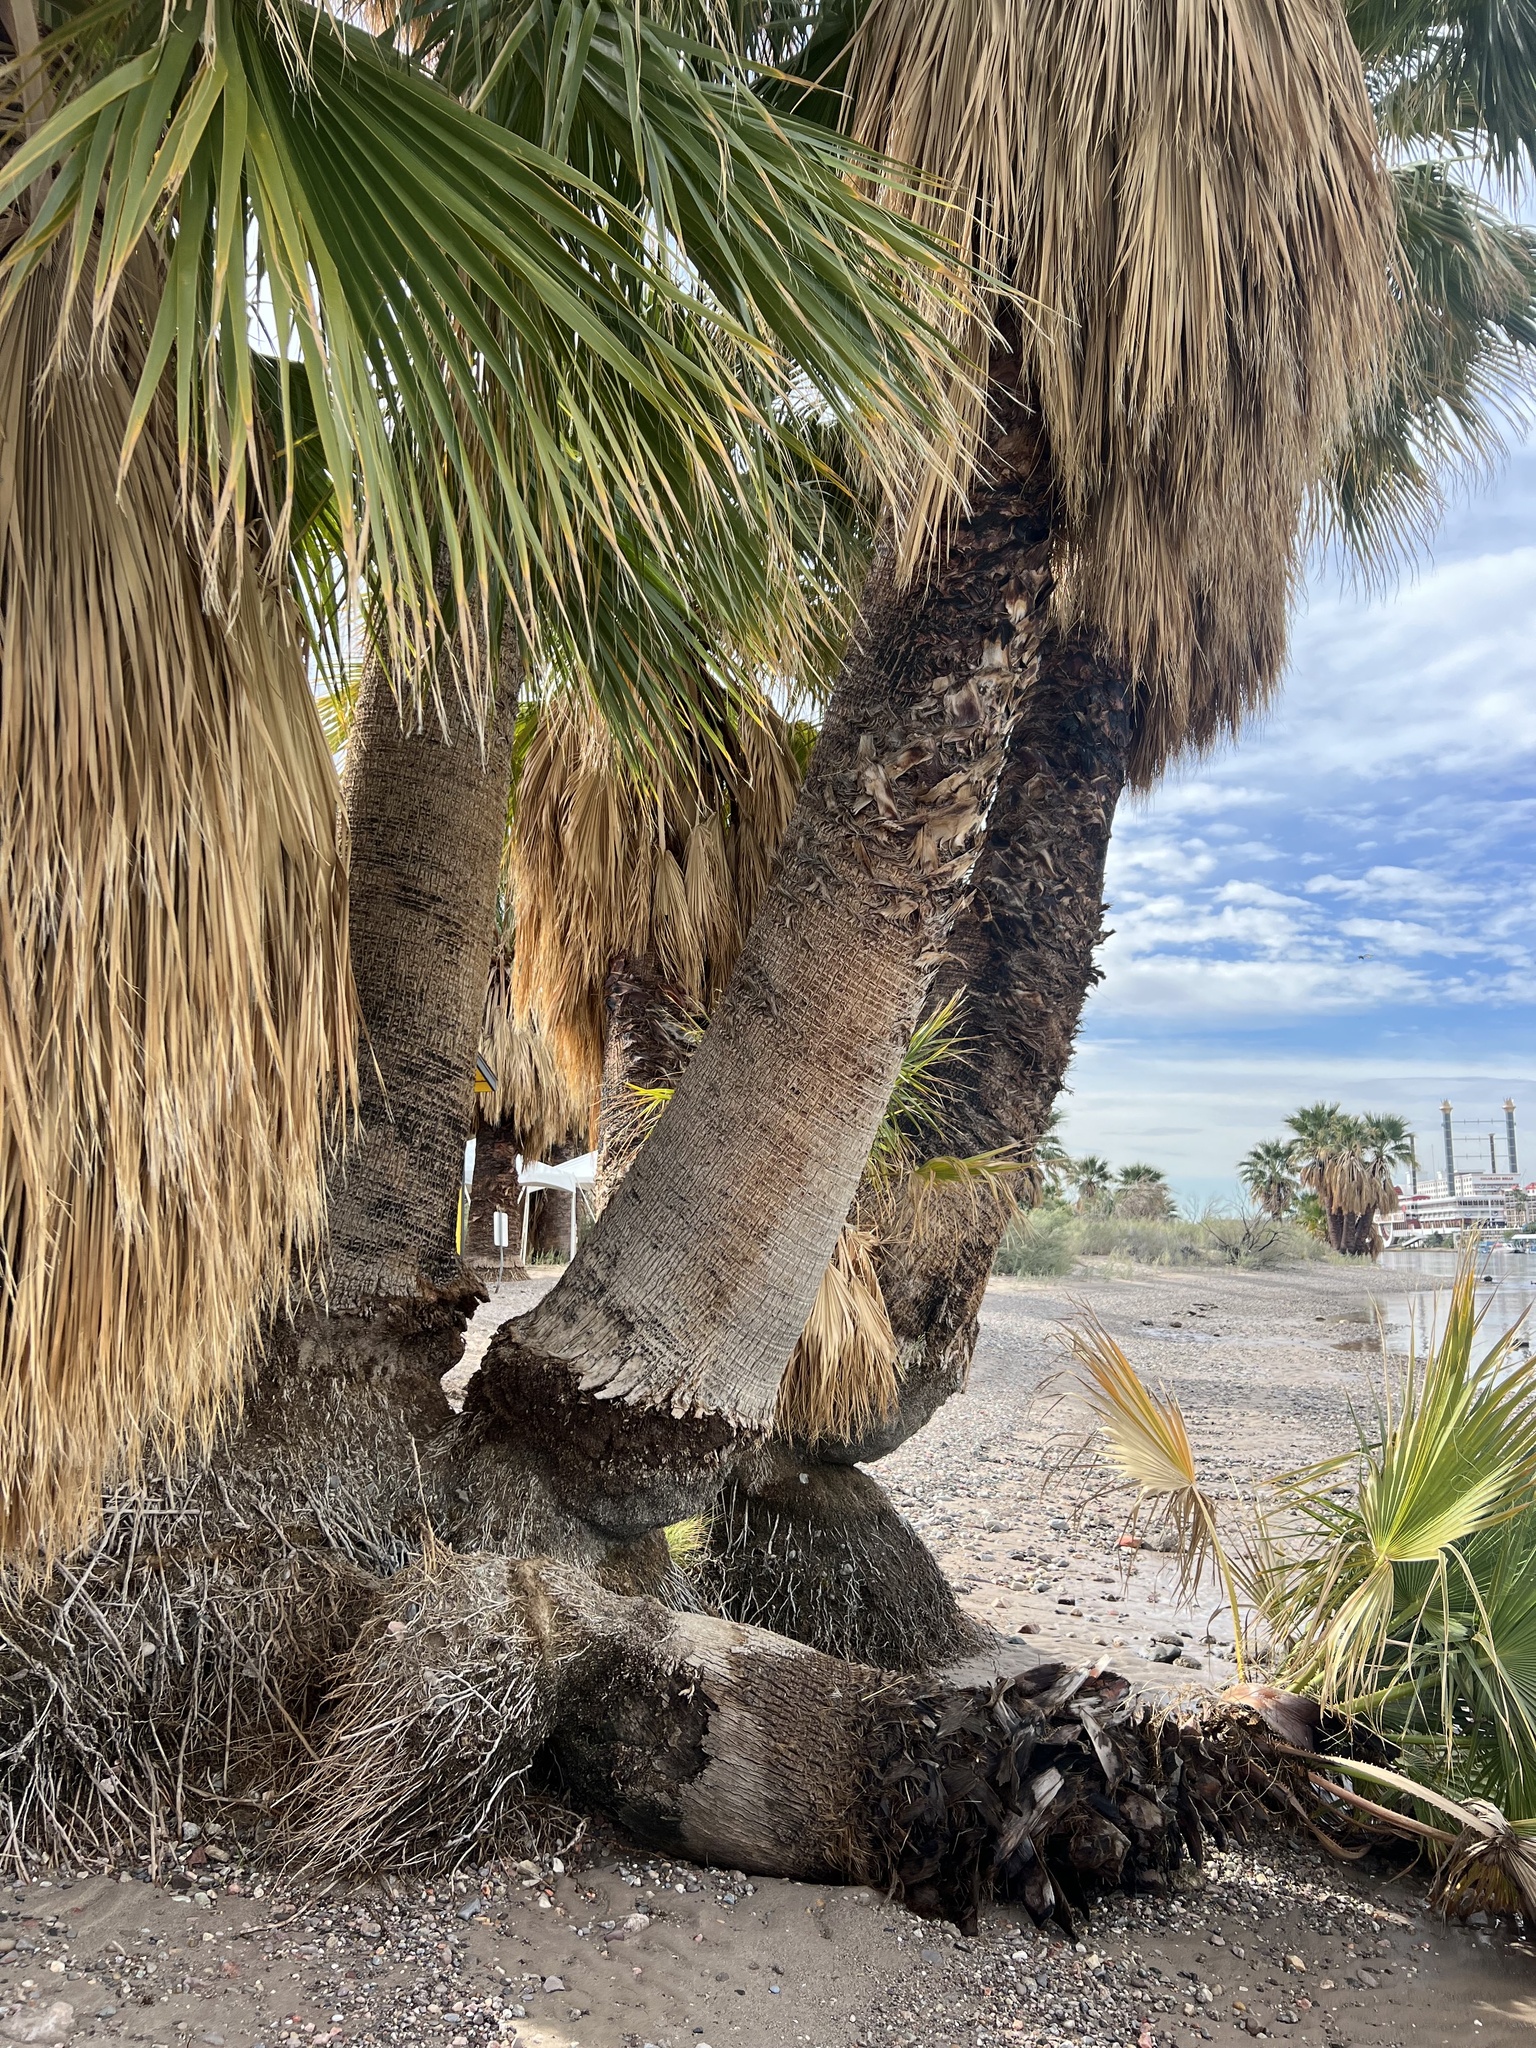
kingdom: Plantae
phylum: Tracheophyta
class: Liliopsida
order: Arecales
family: Arecaceae
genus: Washingtonia
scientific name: Washingtonia filifera
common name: California fan palm
